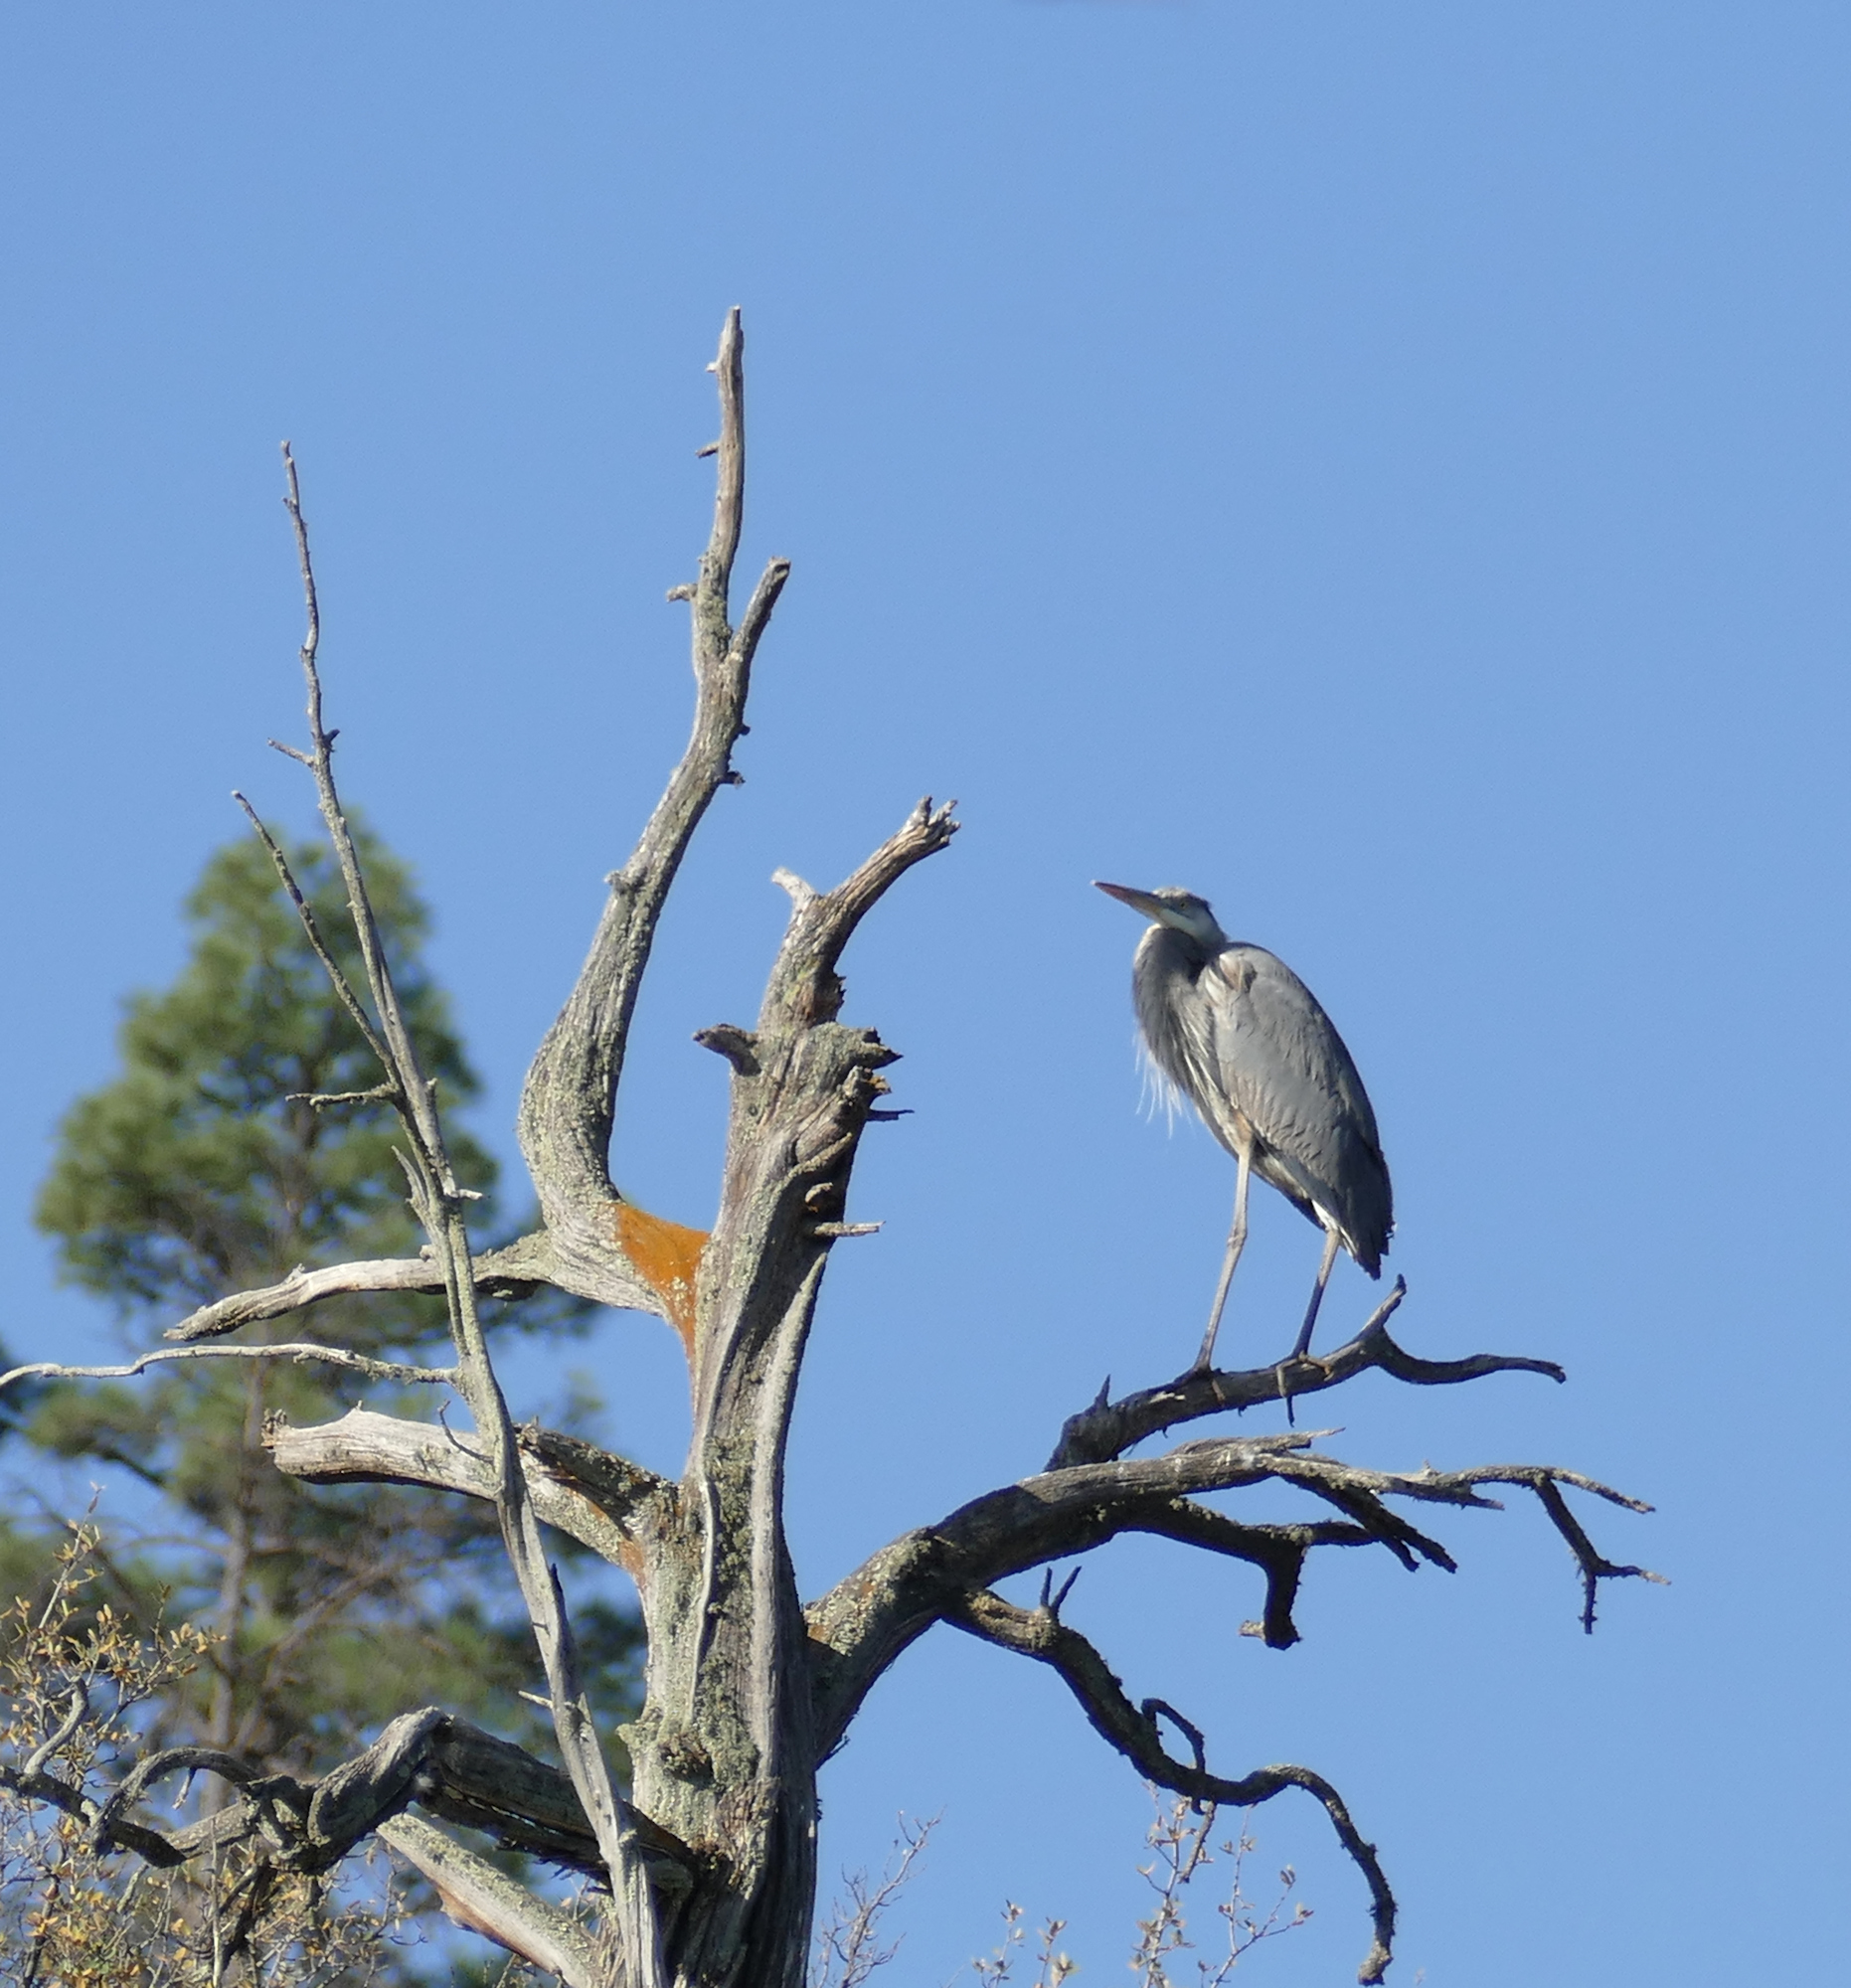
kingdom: Animalia
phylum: Chordata
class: Aves
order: Pelecaniformes
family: Ardeidae
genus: Ardea
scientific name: Ardea herodias
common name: Great blue heron
